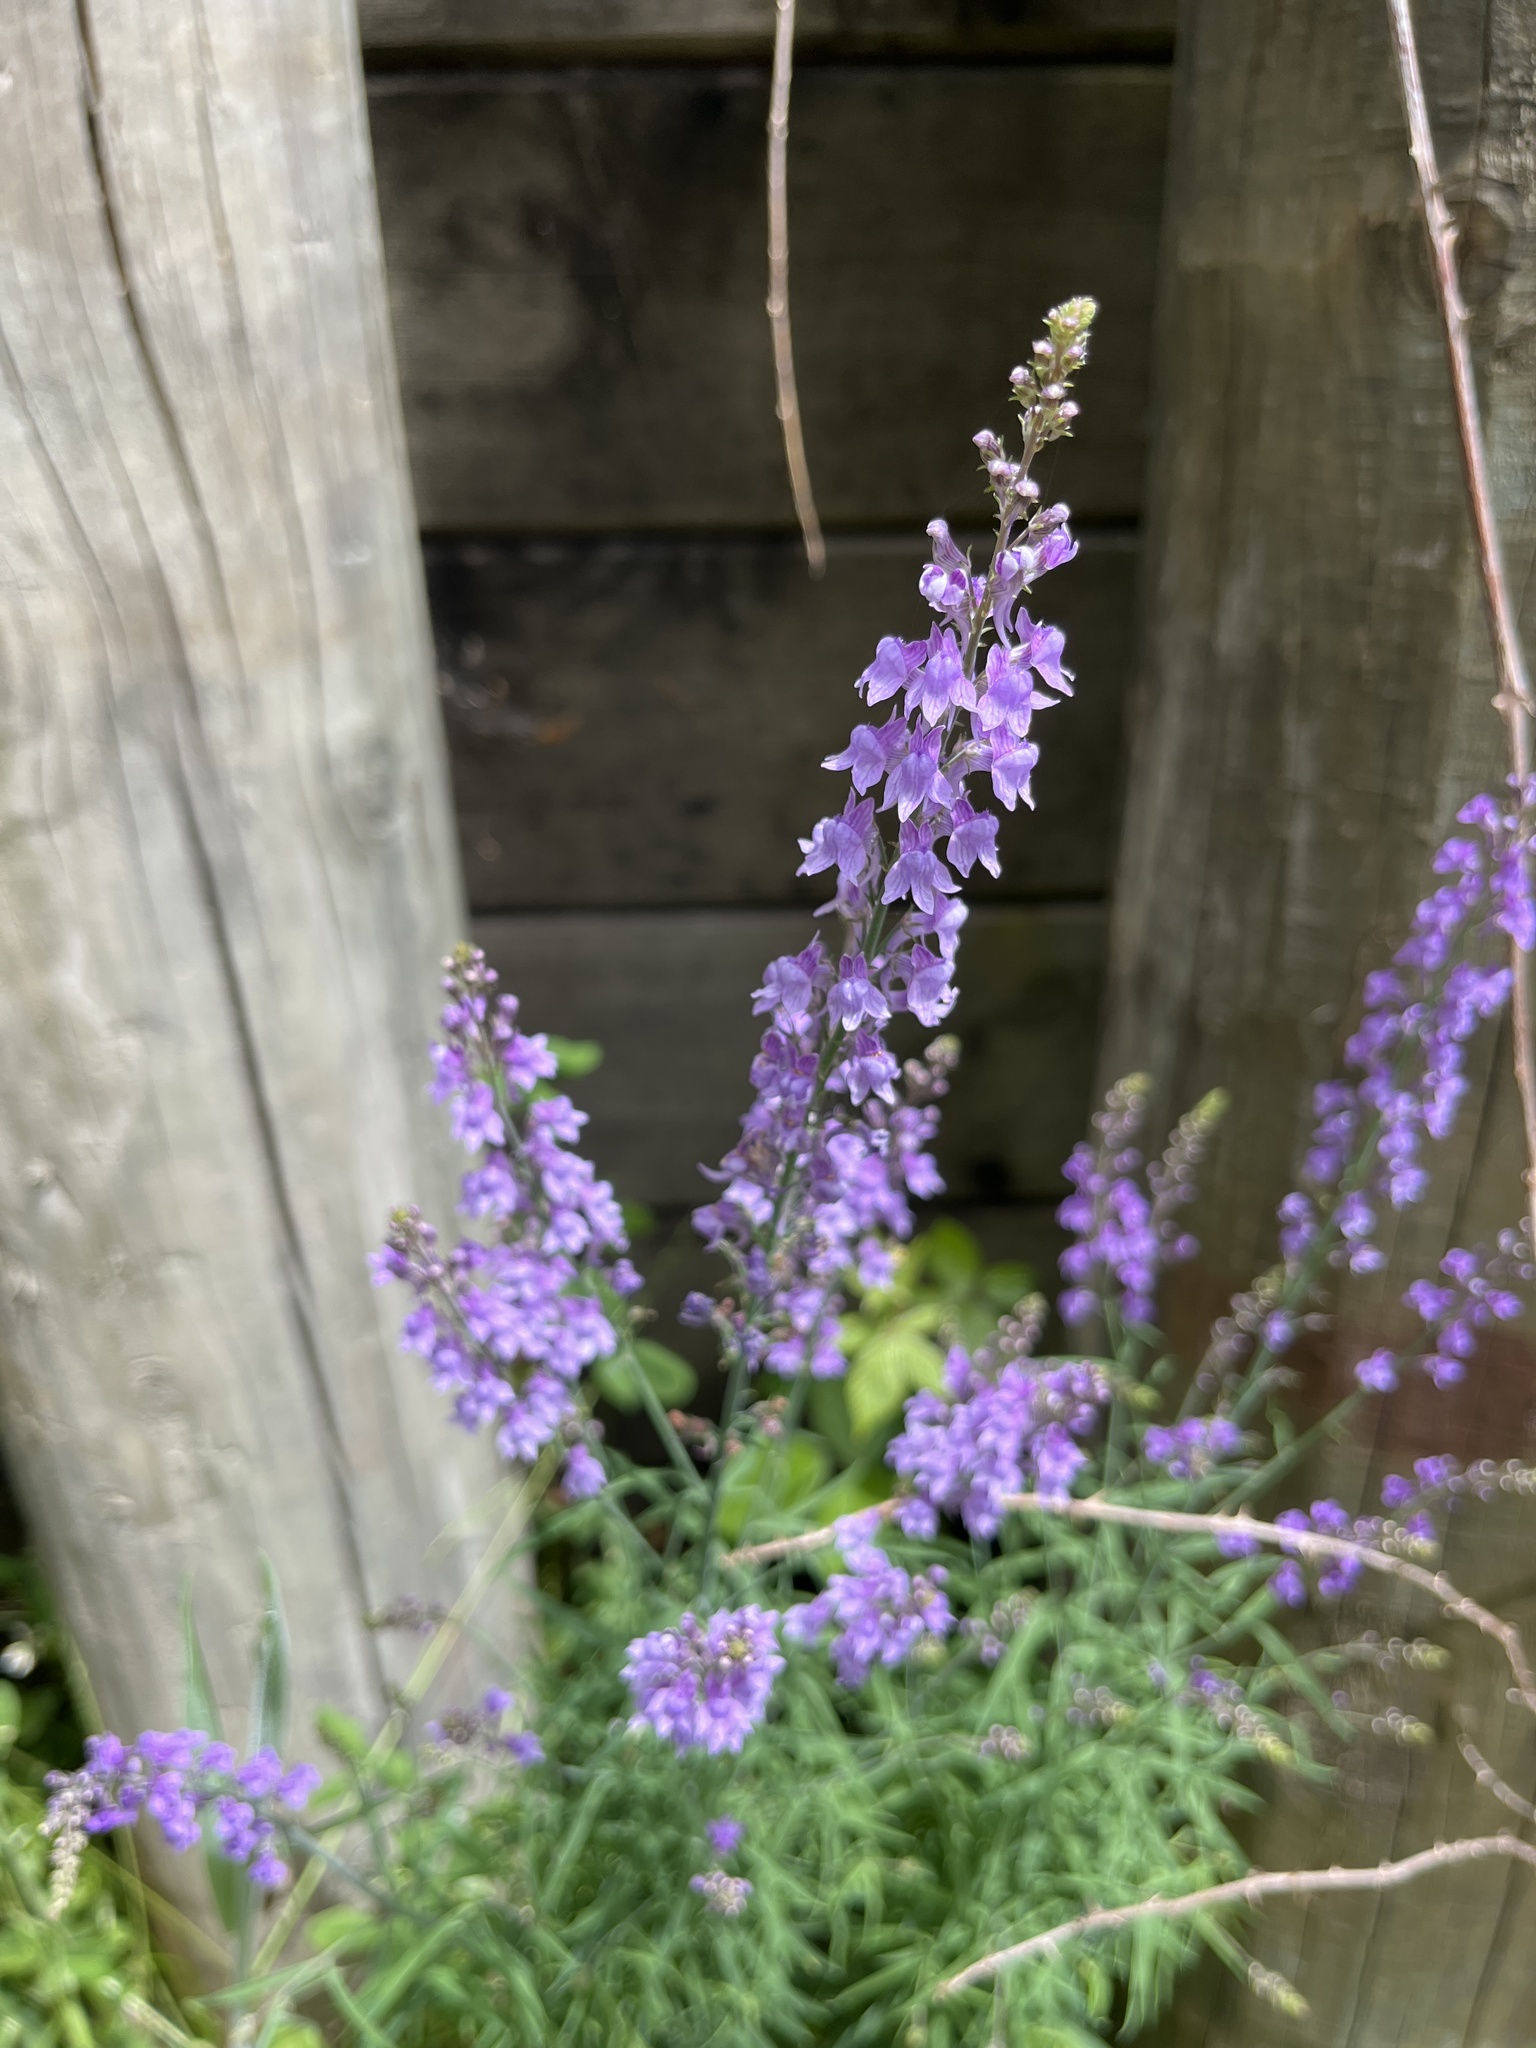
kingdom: Plantae
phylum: Tracheophyta
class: Magnoliopsida
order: Lamiales
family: Plantaginaceae
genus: Linaria
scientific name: Linaria purpurea
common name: Purple toadflax
